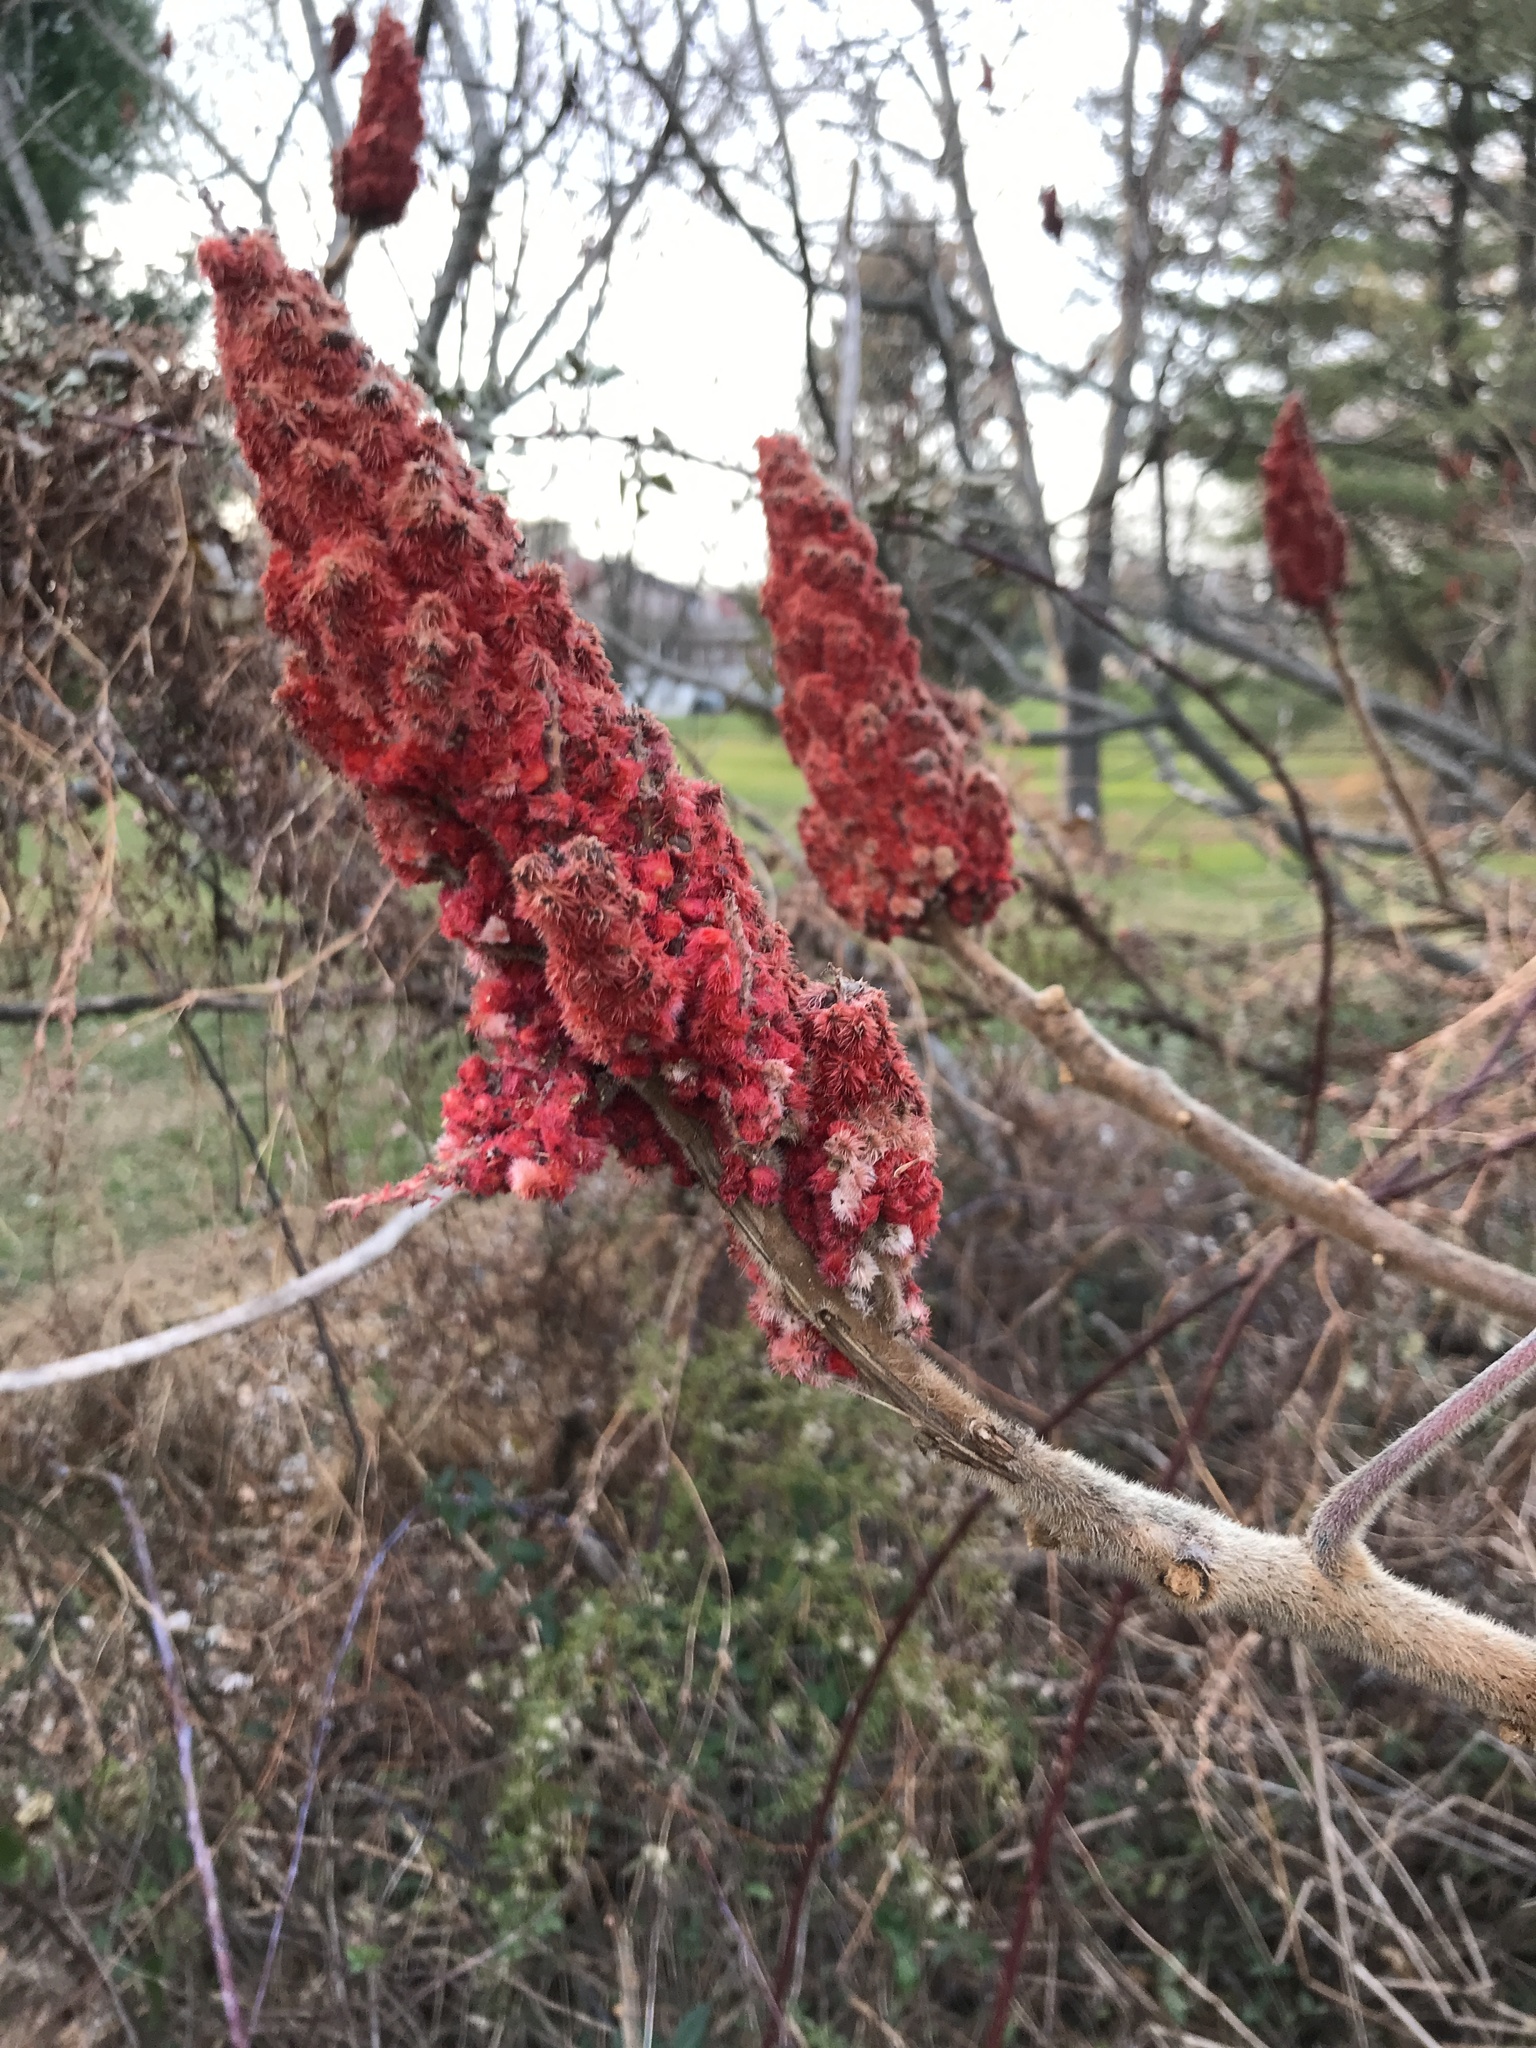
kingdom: Plantae
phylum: Tracheophyta
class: Magnoliopsida
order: Sapindales
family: Anacardiaceae
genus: Rhus
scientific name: Rhus typhina
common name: Staghorn sumac
